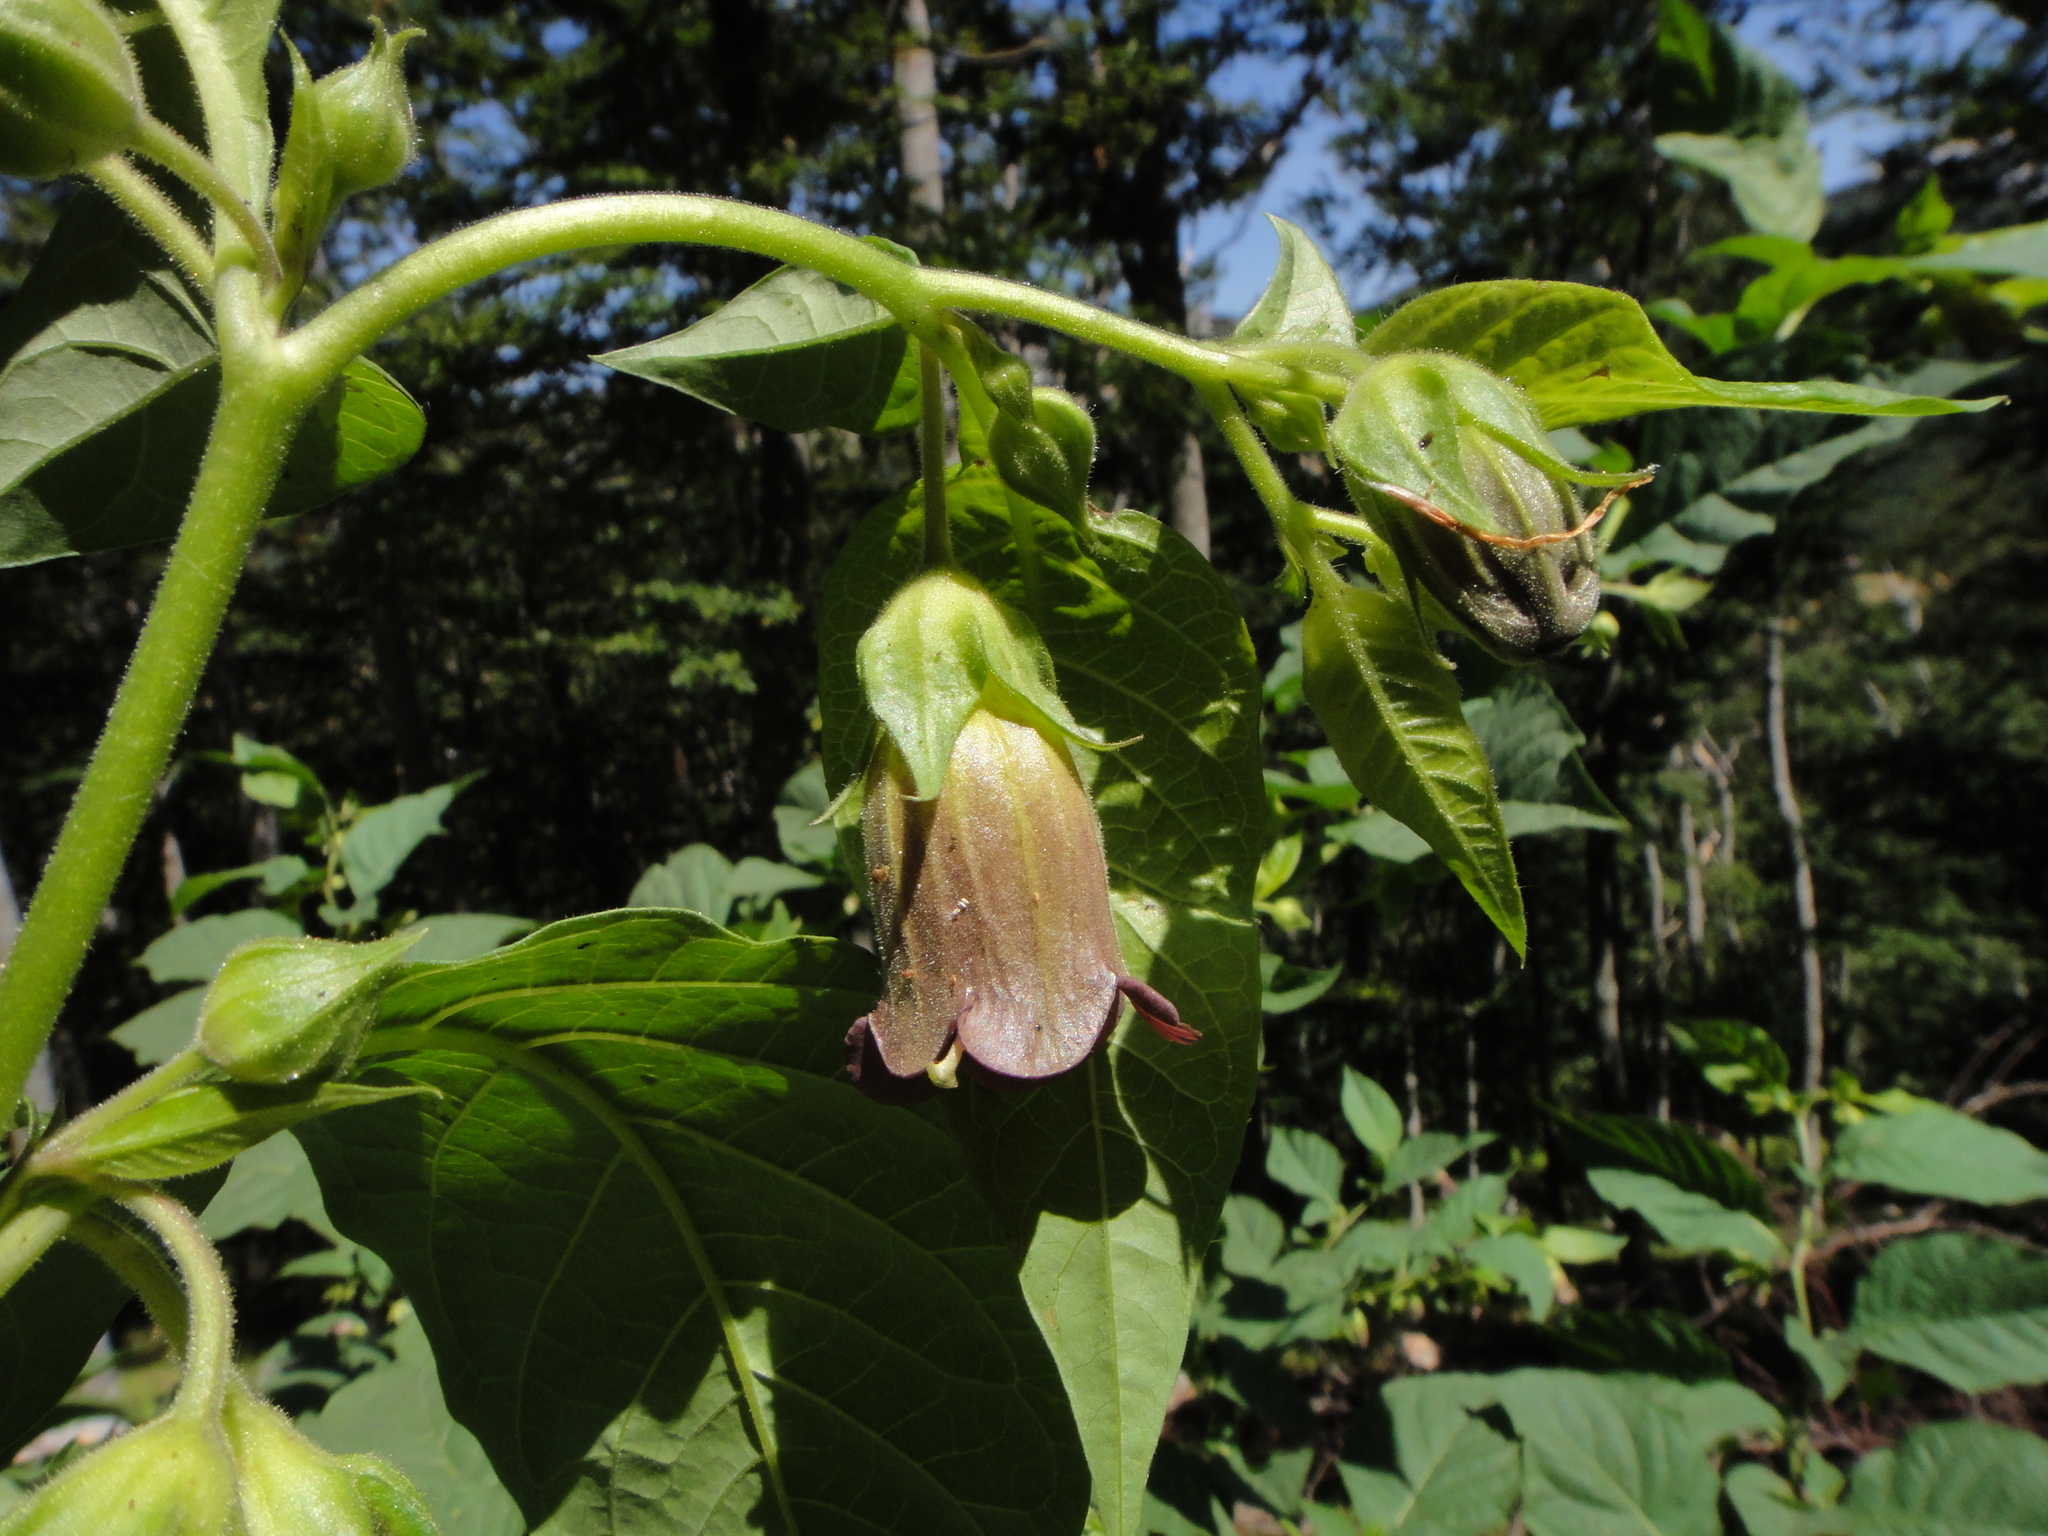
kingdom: Plantae
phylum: Tracheophyta
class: Magnoliopsida
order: Solanales
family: Solanaceae
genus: Atropa
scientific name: Atropa belladonna
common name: Deadly nightshade
